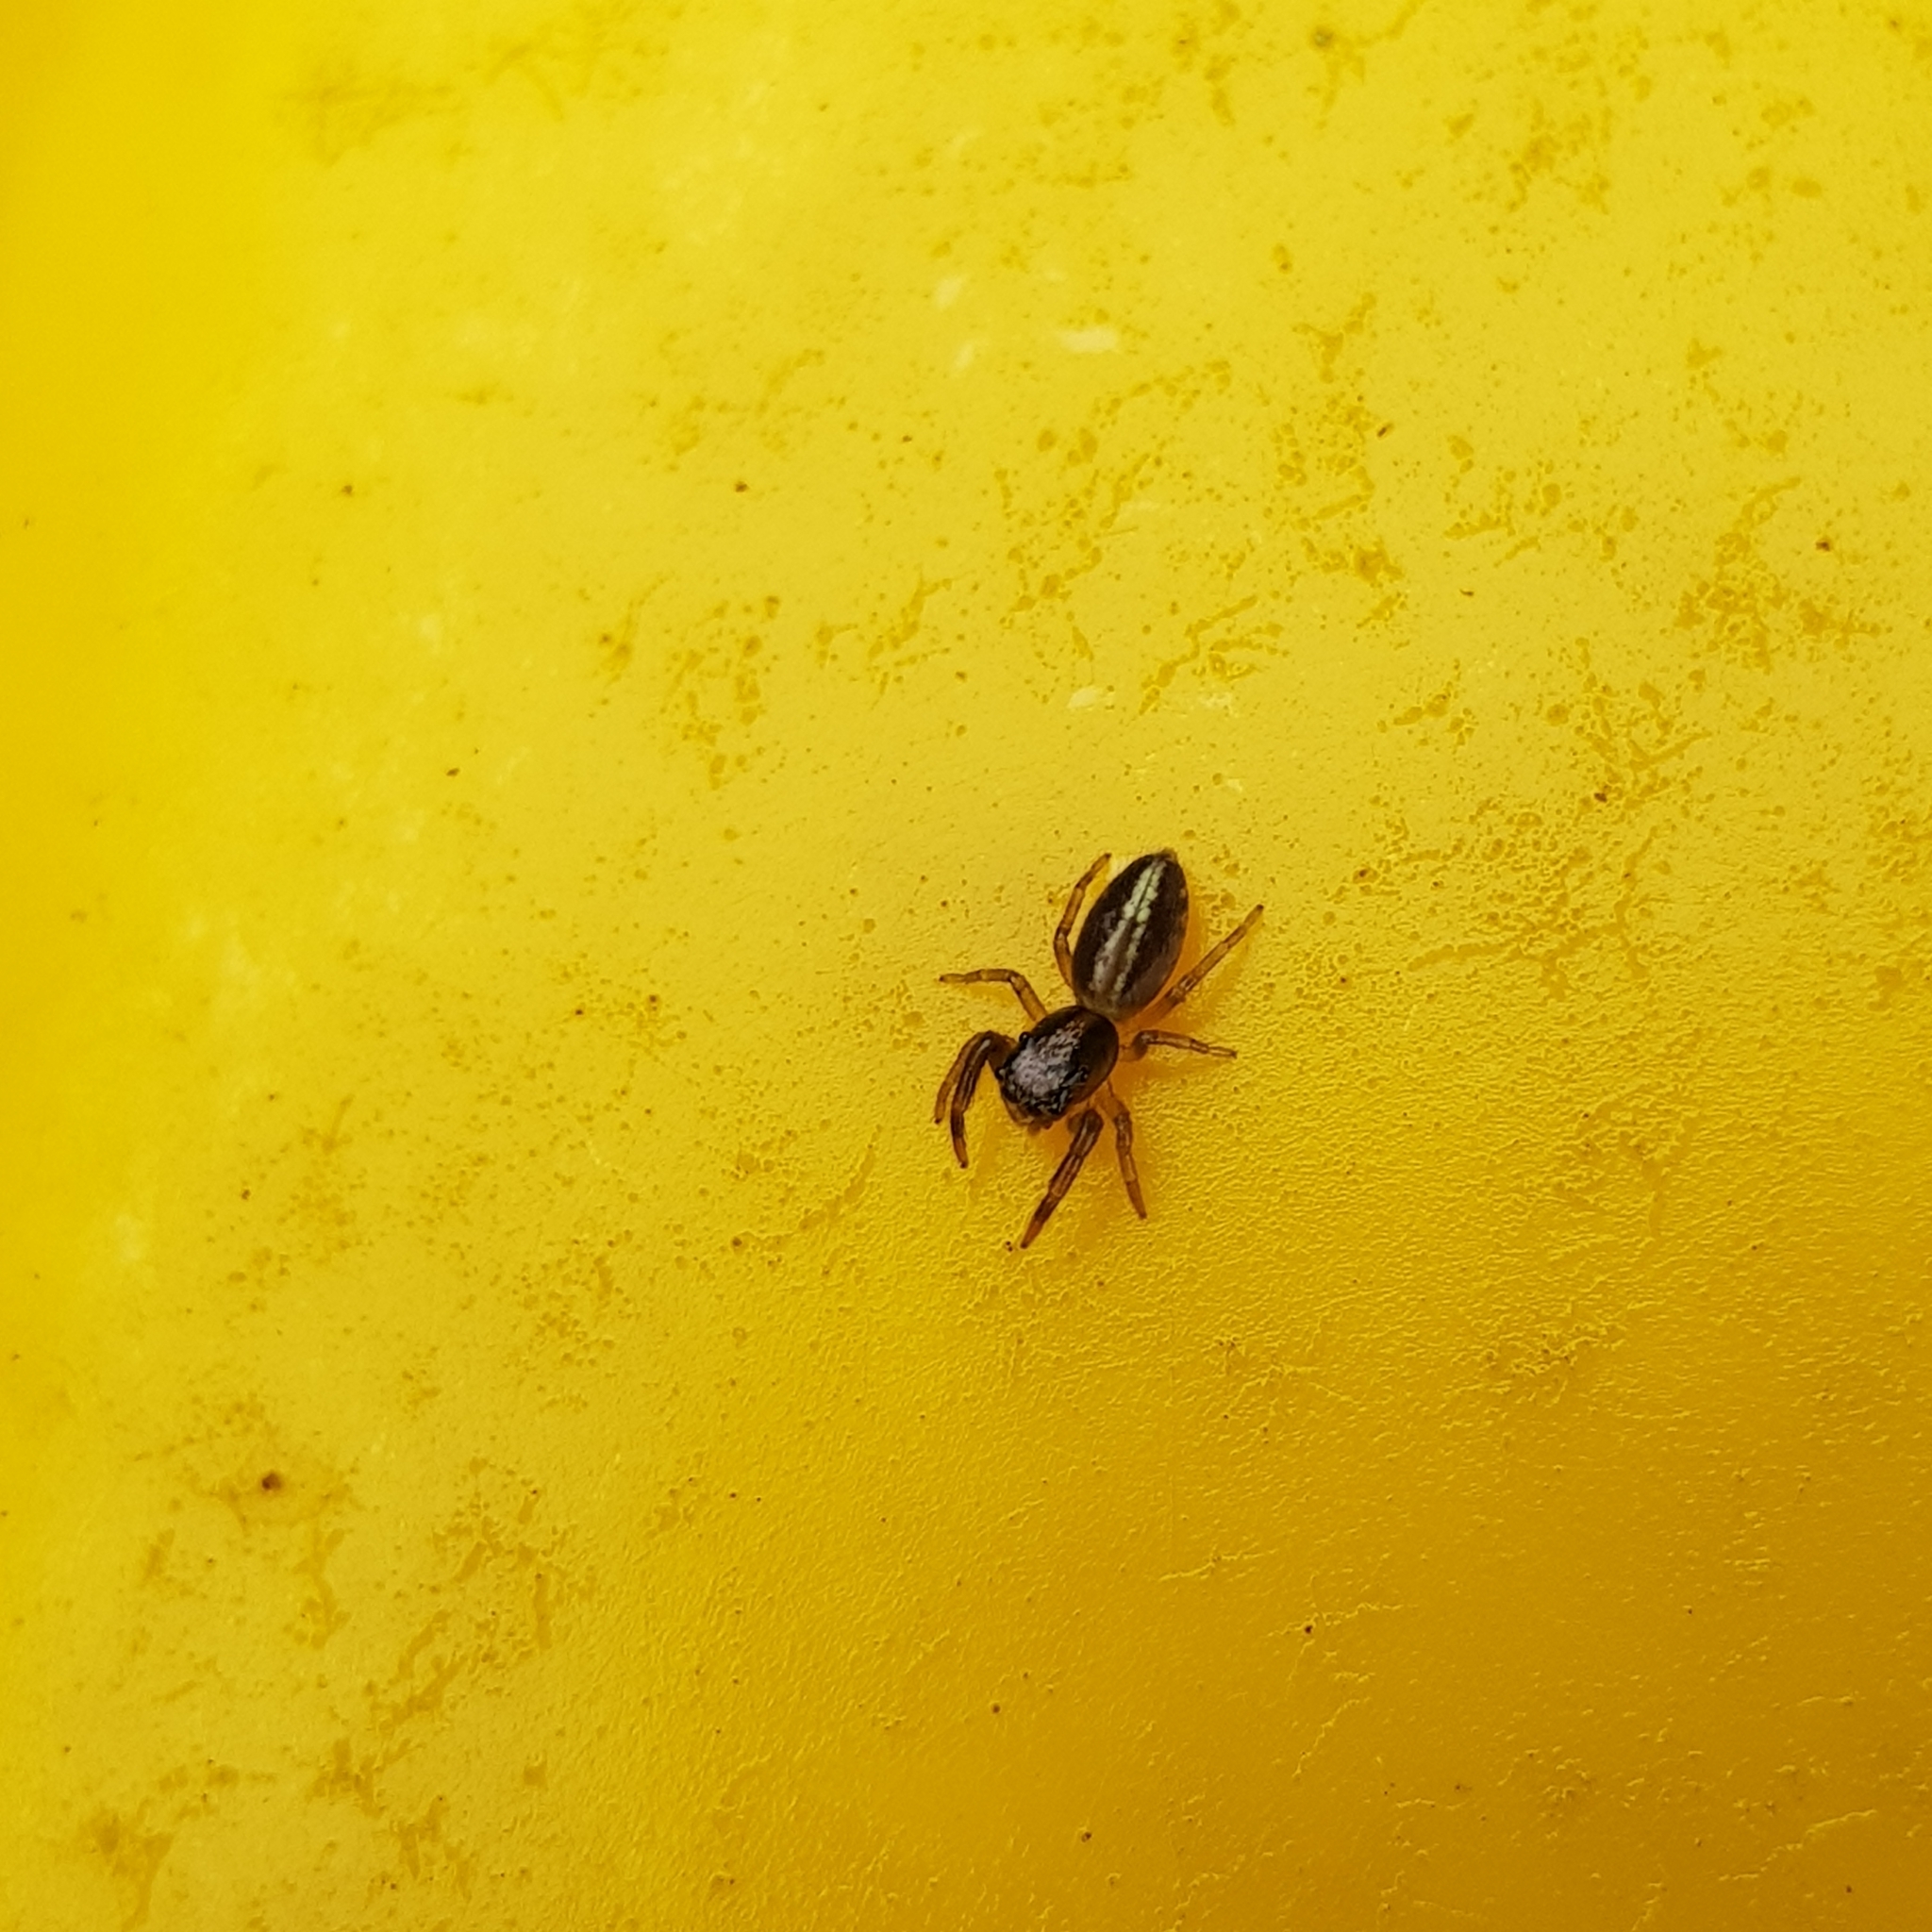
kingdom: Animalia
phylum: Arthropoda
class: Arachnida
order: Araneae
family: Salticidae
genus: Trite
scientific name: Trite planiceps
